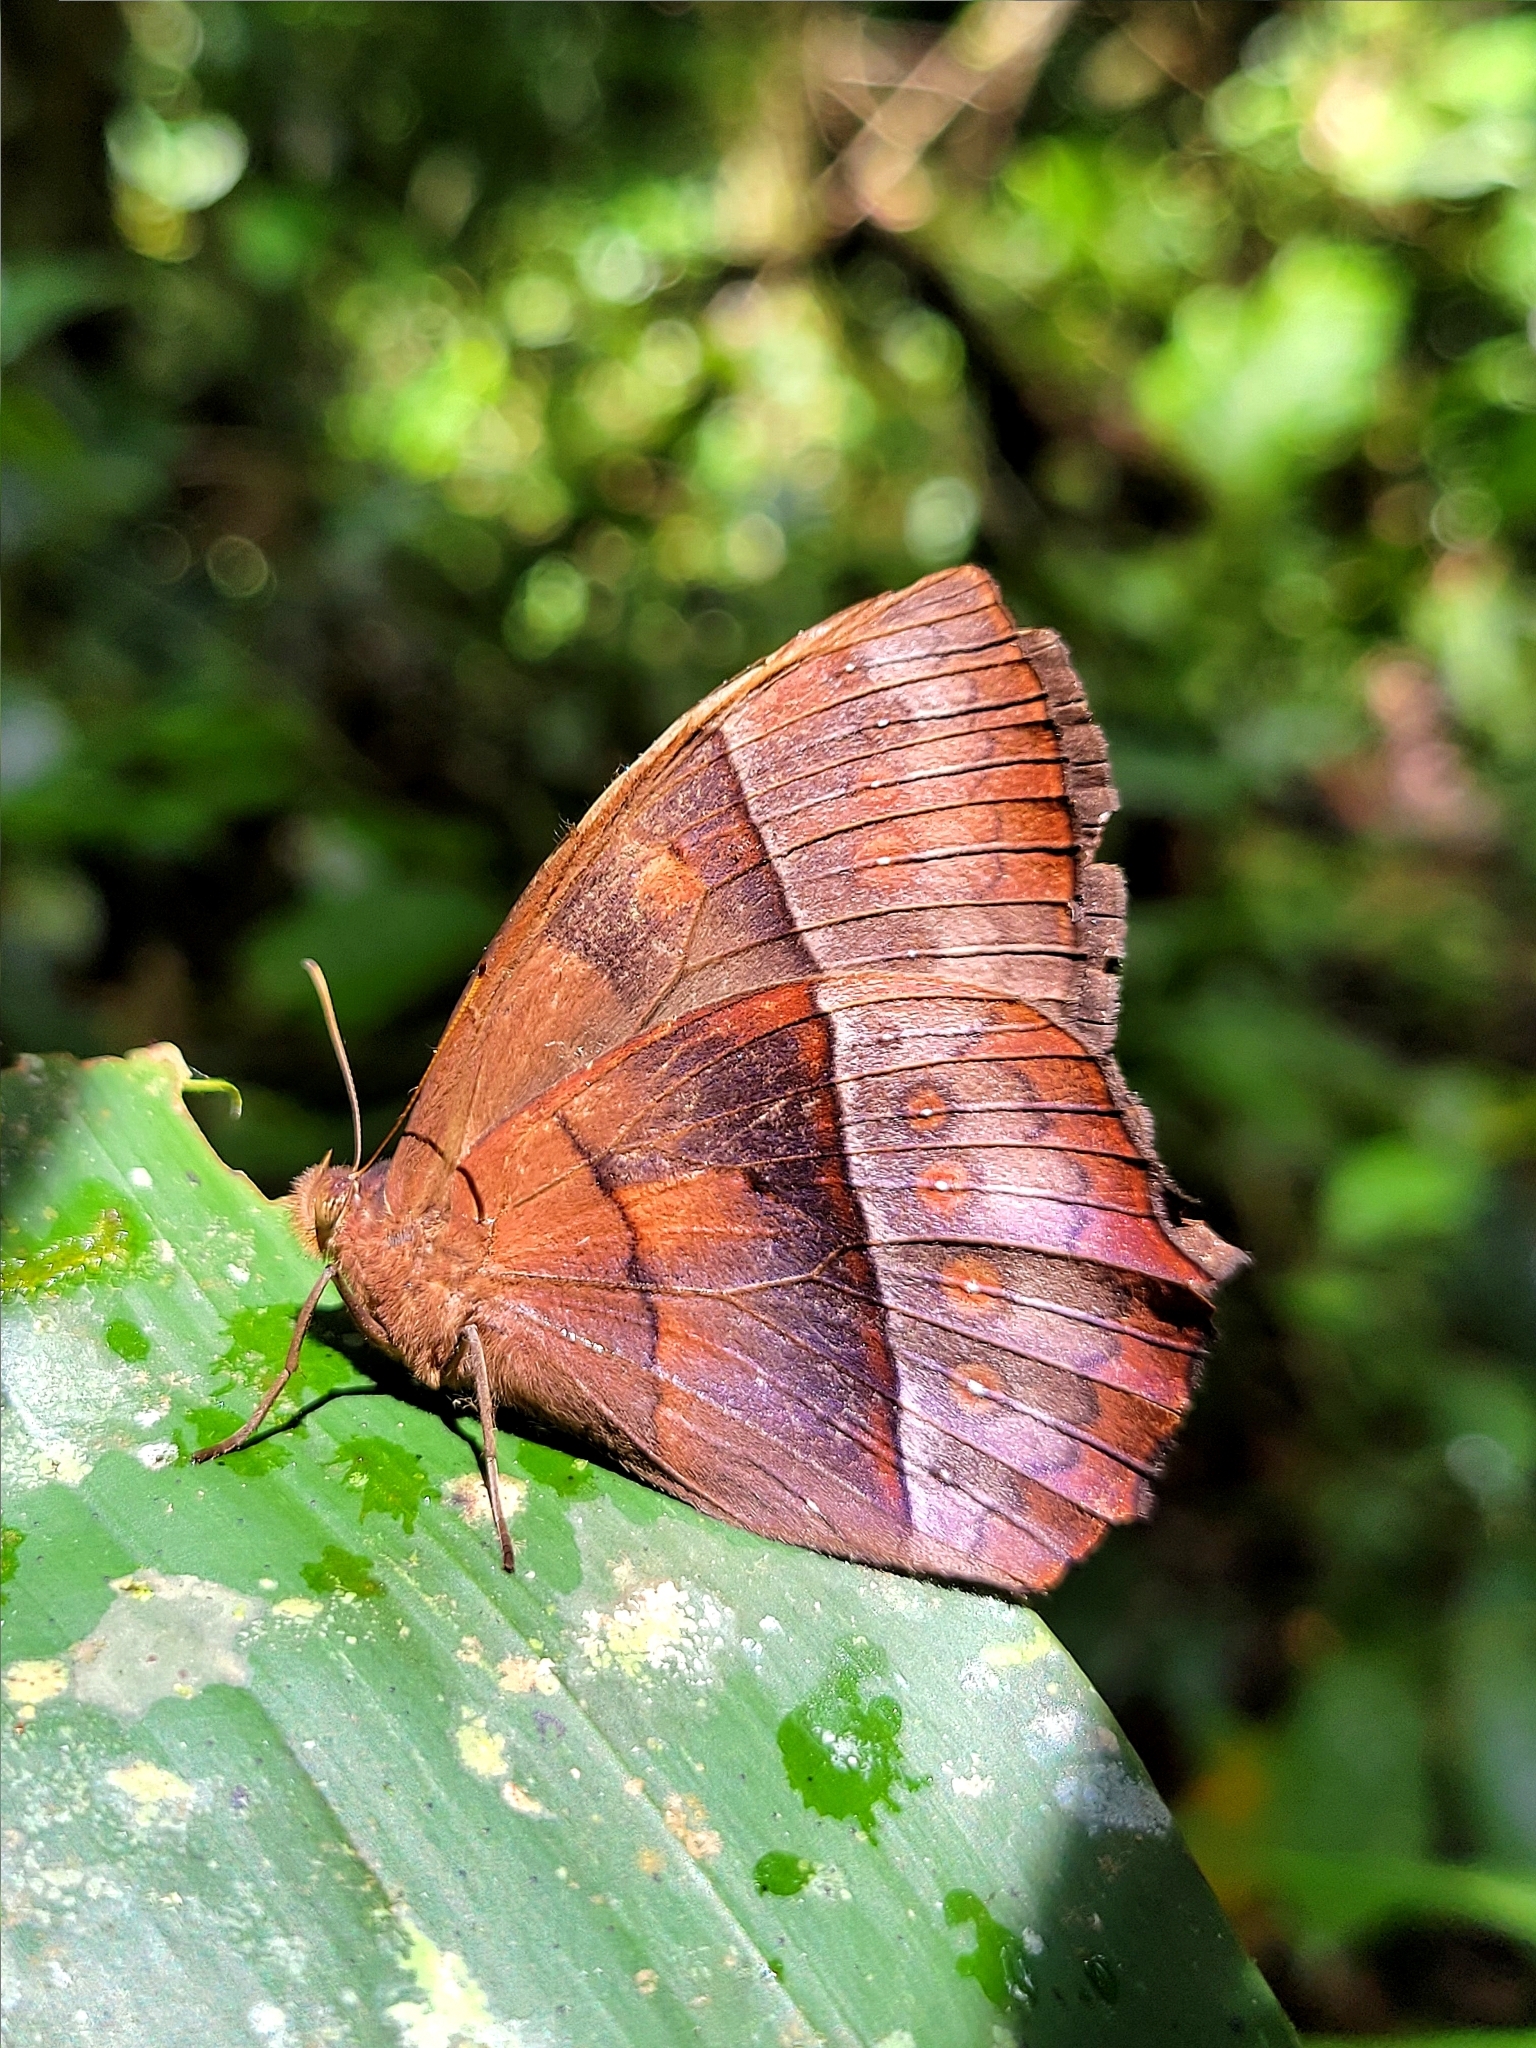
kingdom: Animalia
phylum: Arthropoda
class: Insecta
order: Lepidoptera
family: Nymphalidae
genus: Taygetis
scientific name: Taygetis virgilia
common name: Stub-tailed satyr
